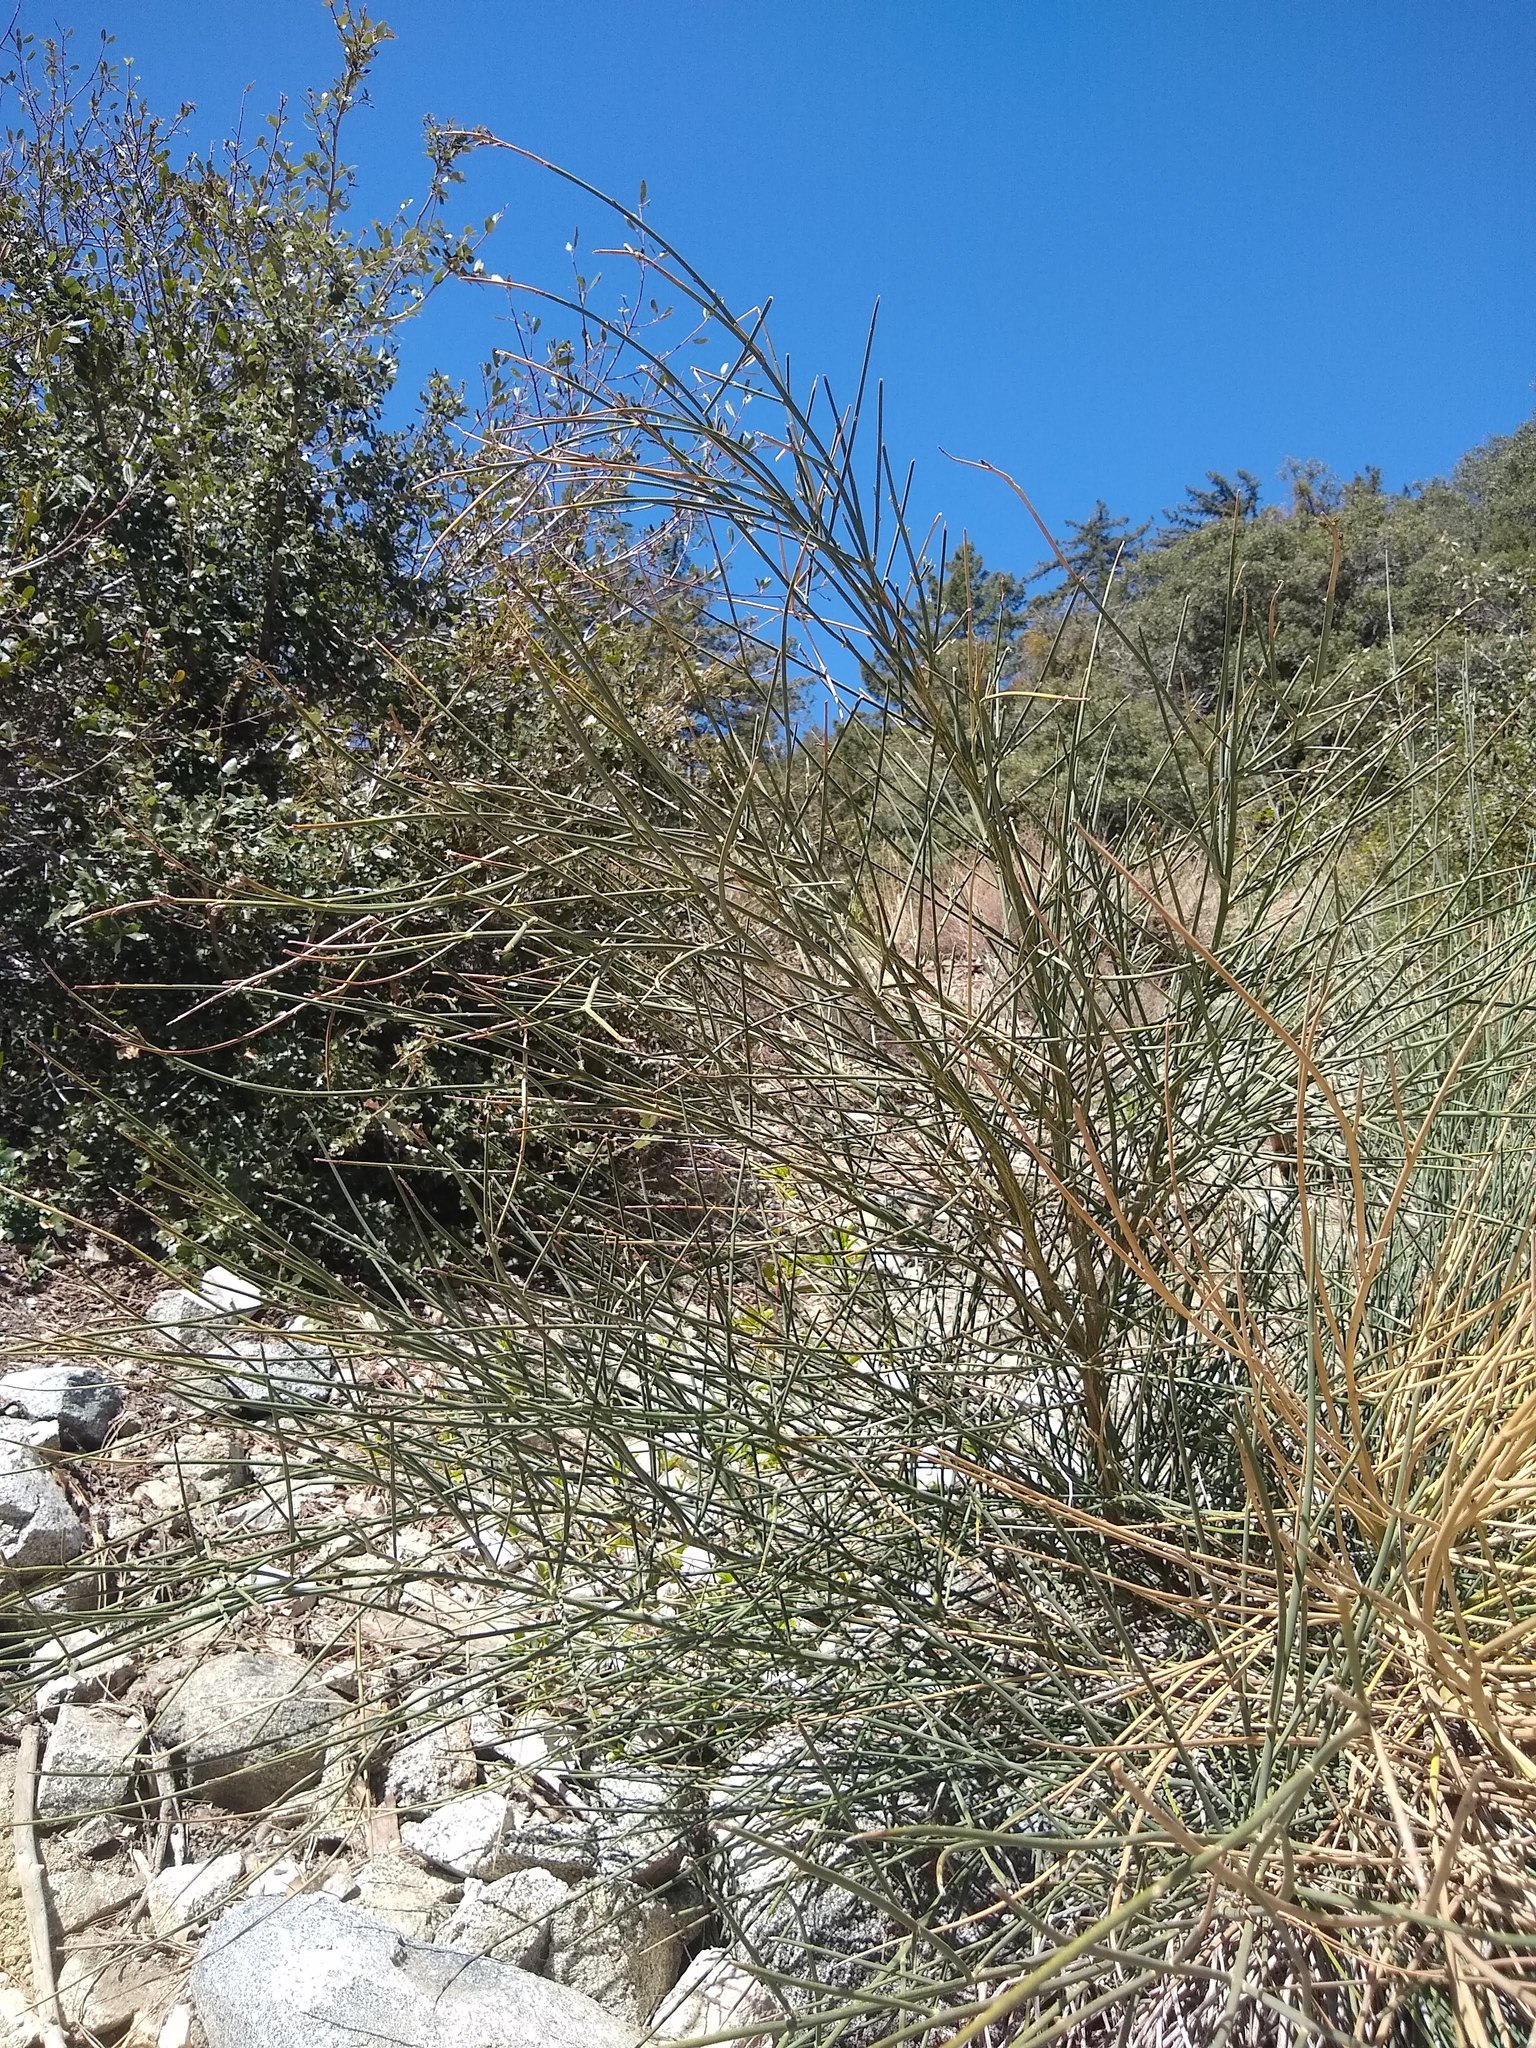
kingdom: Plantae
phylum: Tracheophyta
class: Magnoliopsida
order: Fabales
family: Fabaceae
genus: Spartium
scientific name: Spartium junceum
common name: Spanish broom
